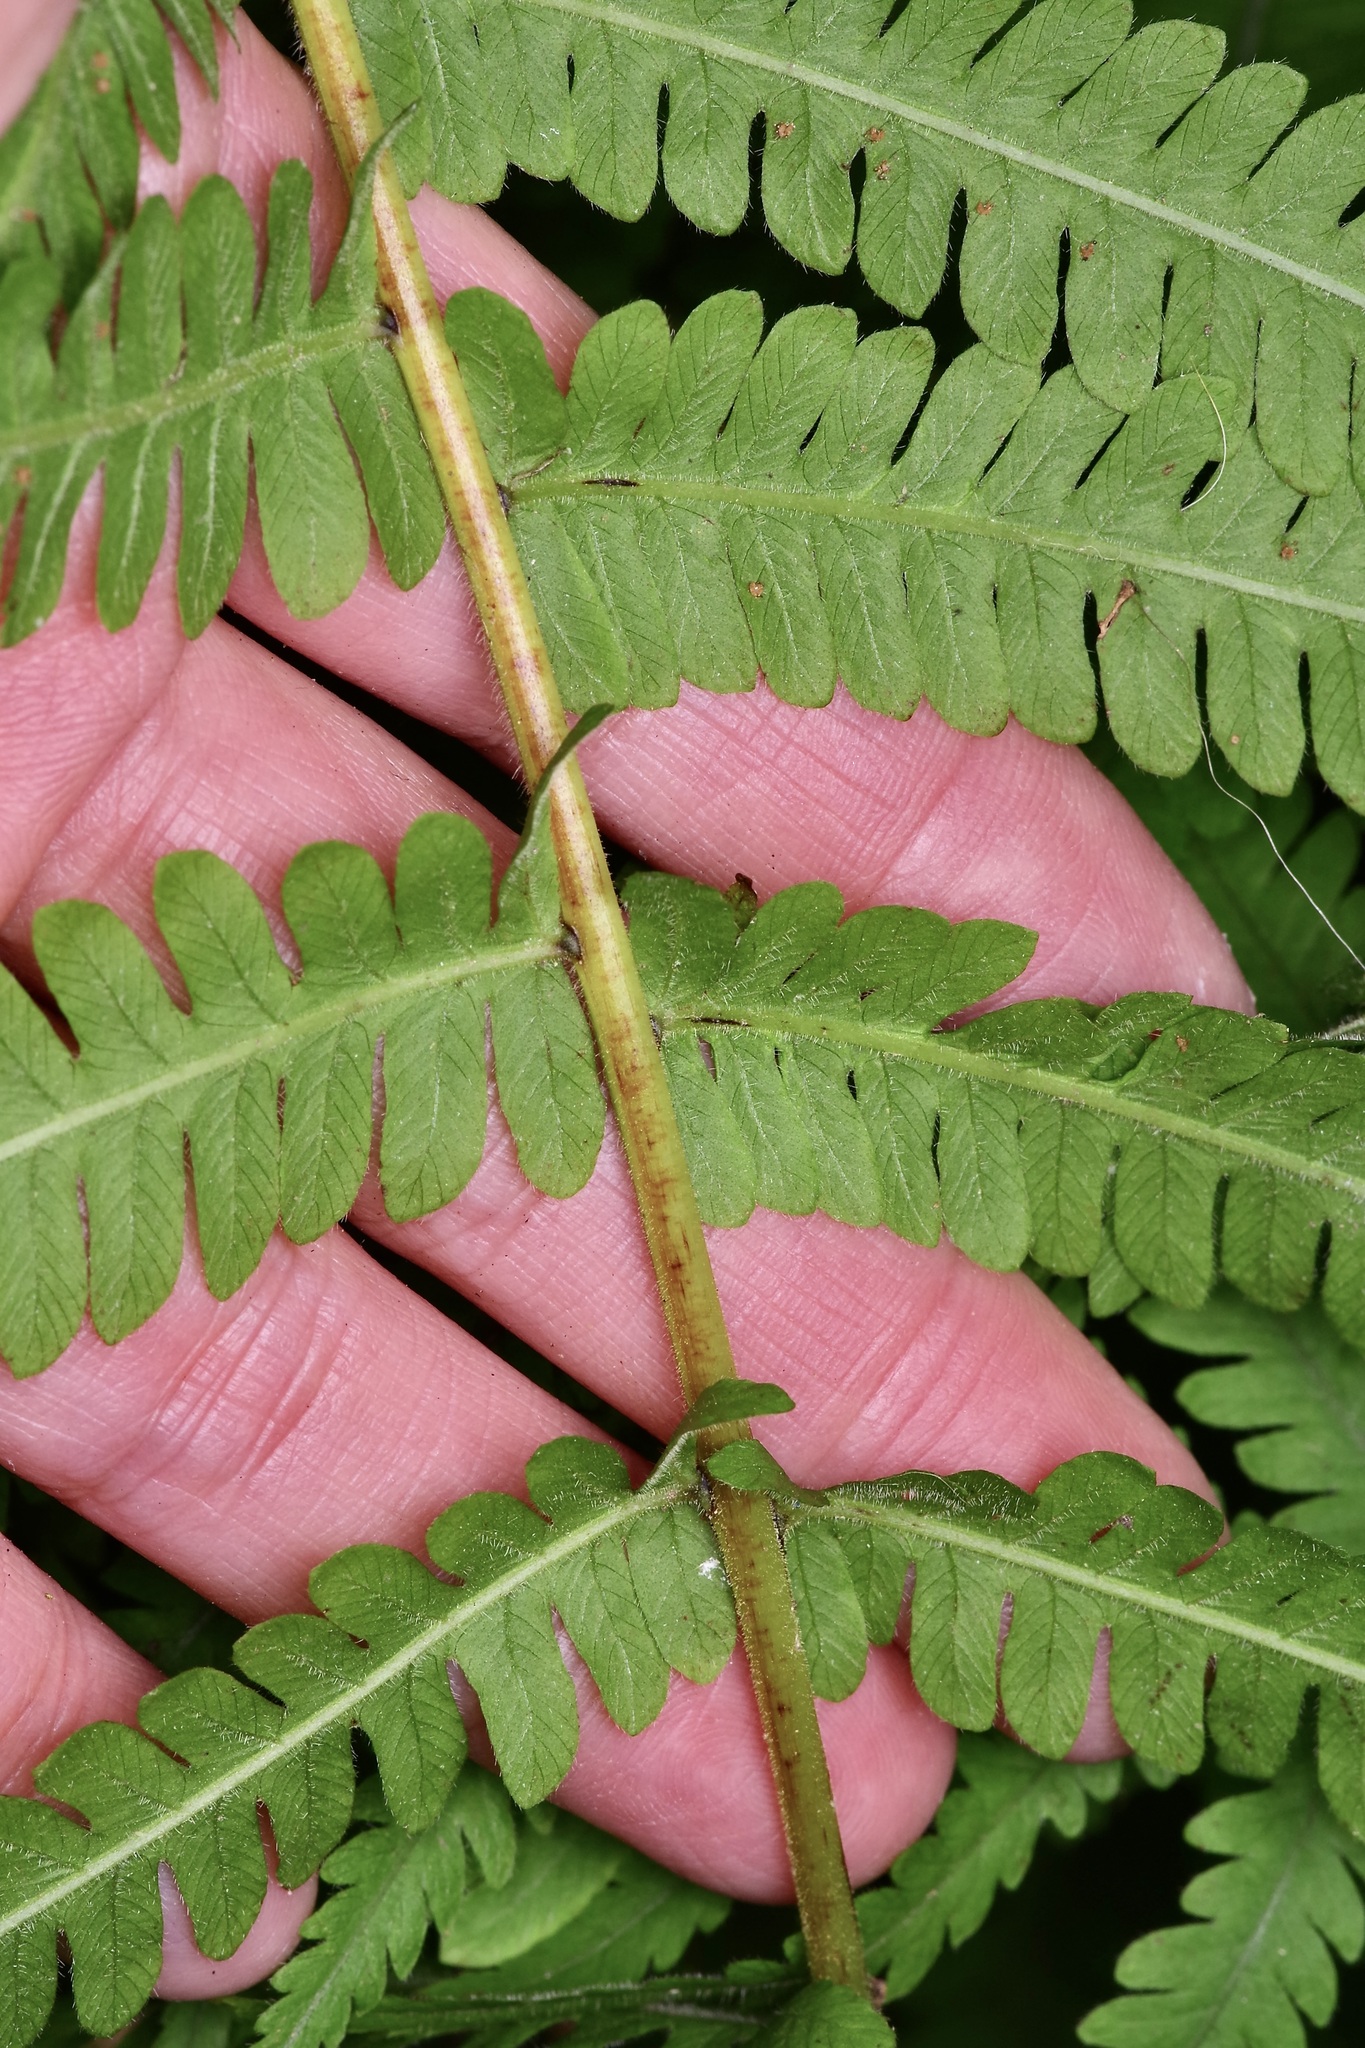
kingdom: Plantae
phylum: Tracheophyta
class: Polypodiopsida
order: Polypodiales
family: Thelypteridaceae
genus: Pelazoneuron
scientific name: Pelazoneuron ovatum
